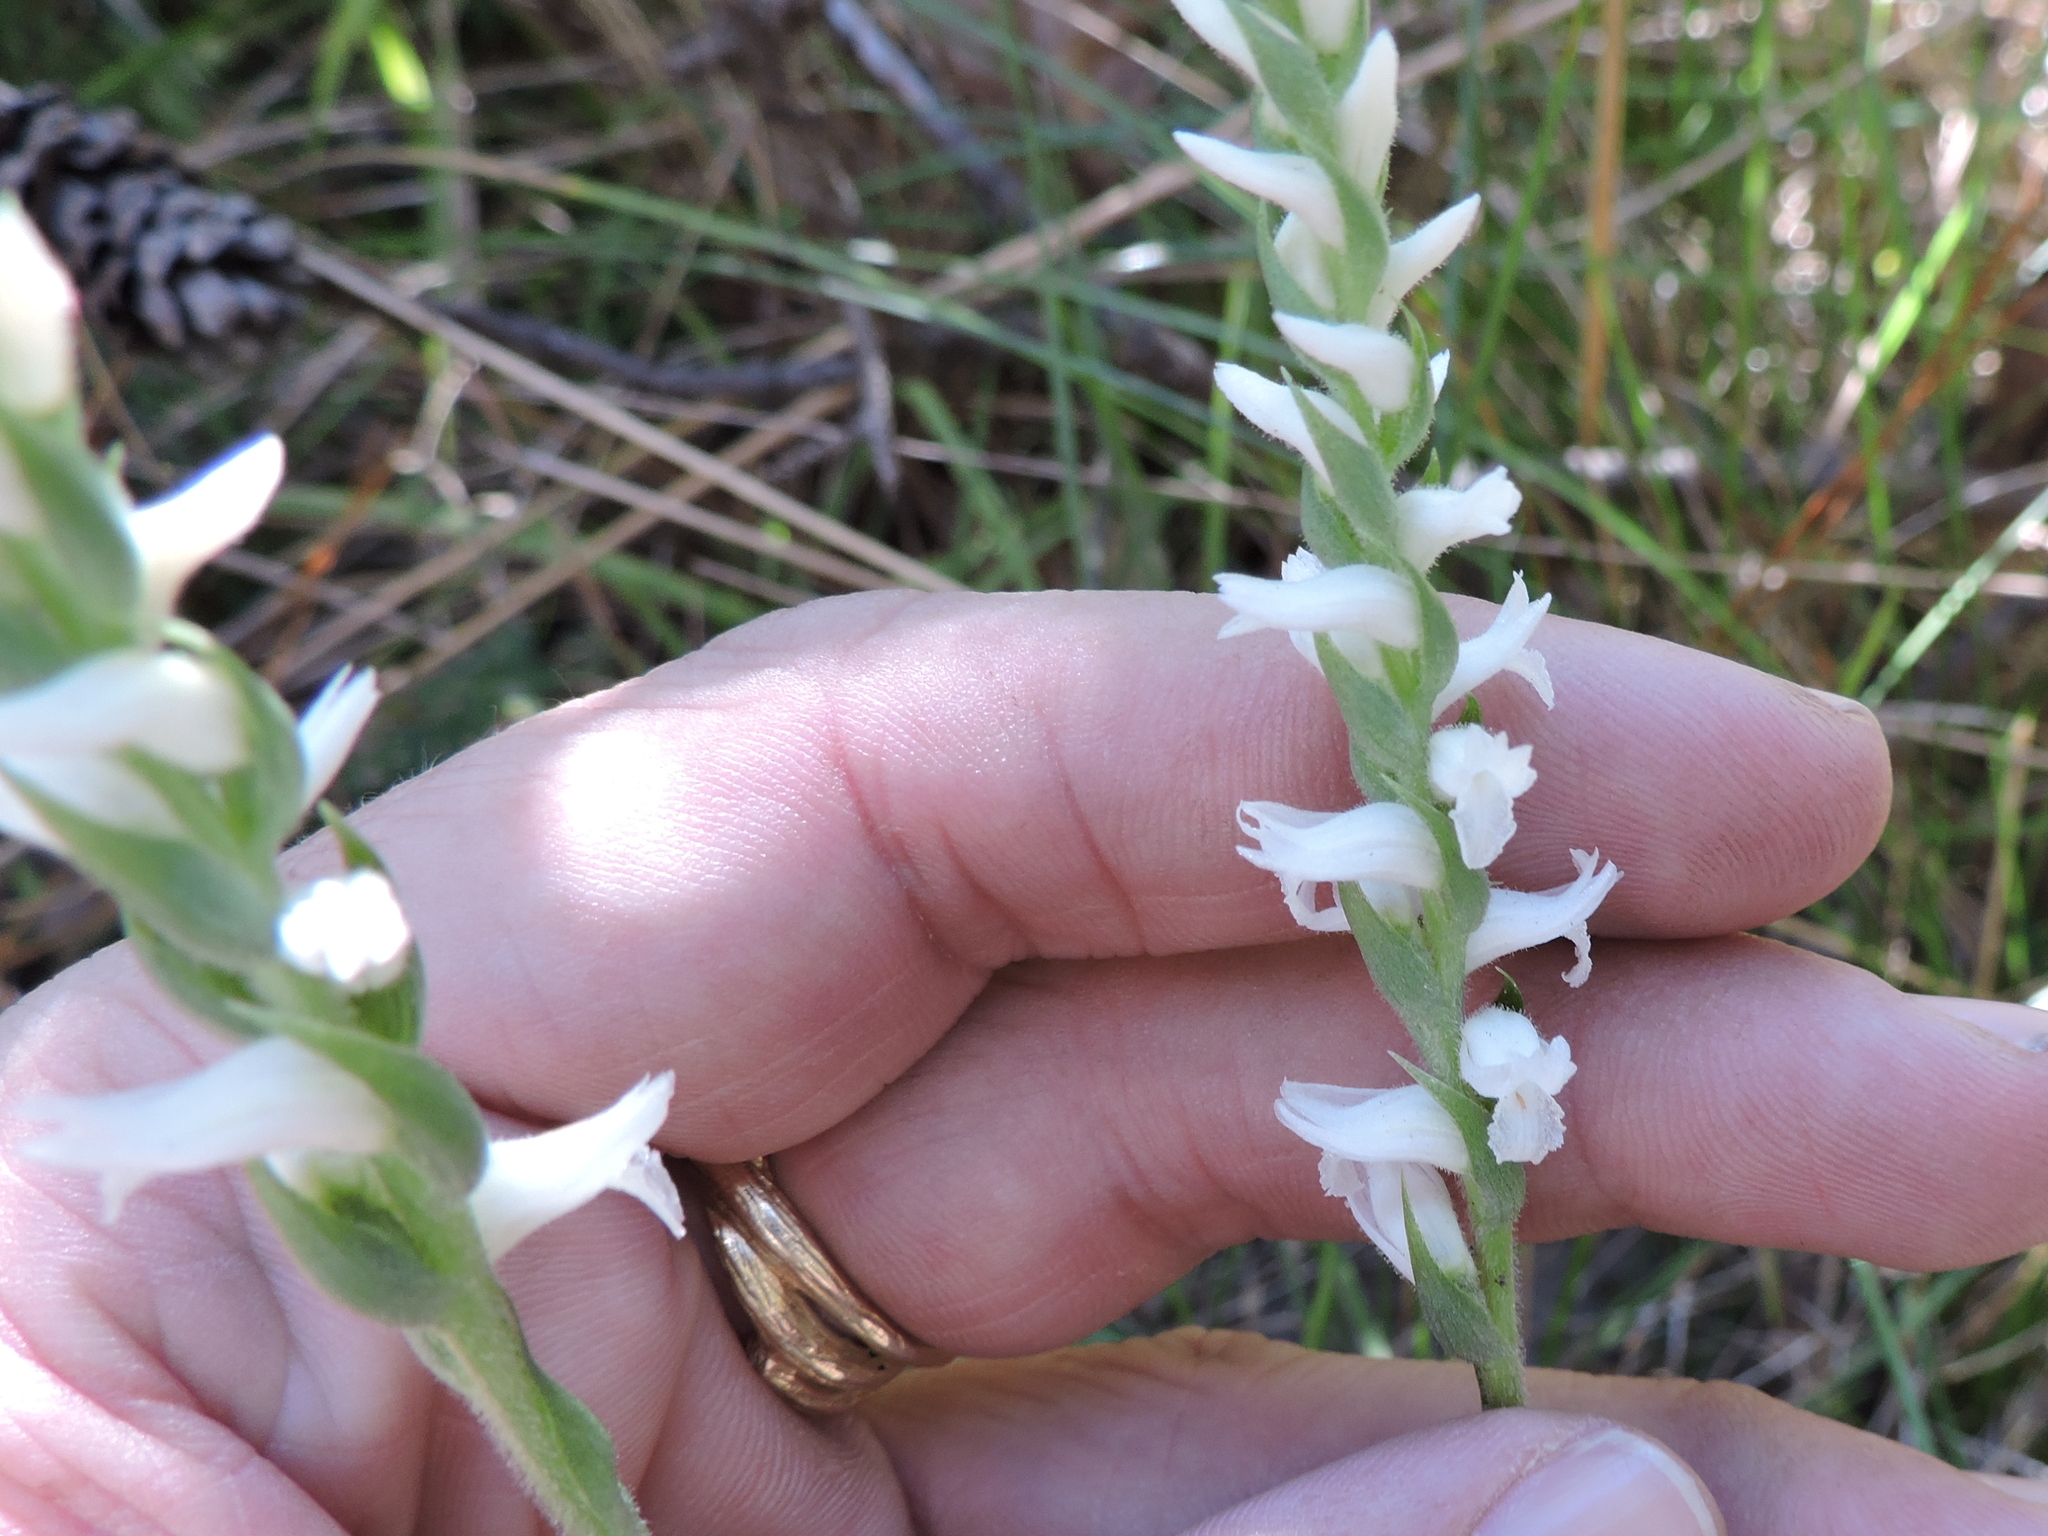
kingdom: Plantae
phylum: Tracheophyta
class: Liliopsida
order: Asparagales
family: Orchidaceae
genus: Spiranthes
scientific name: Spiranthes cernua
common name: Dropping ladies'-tresses
